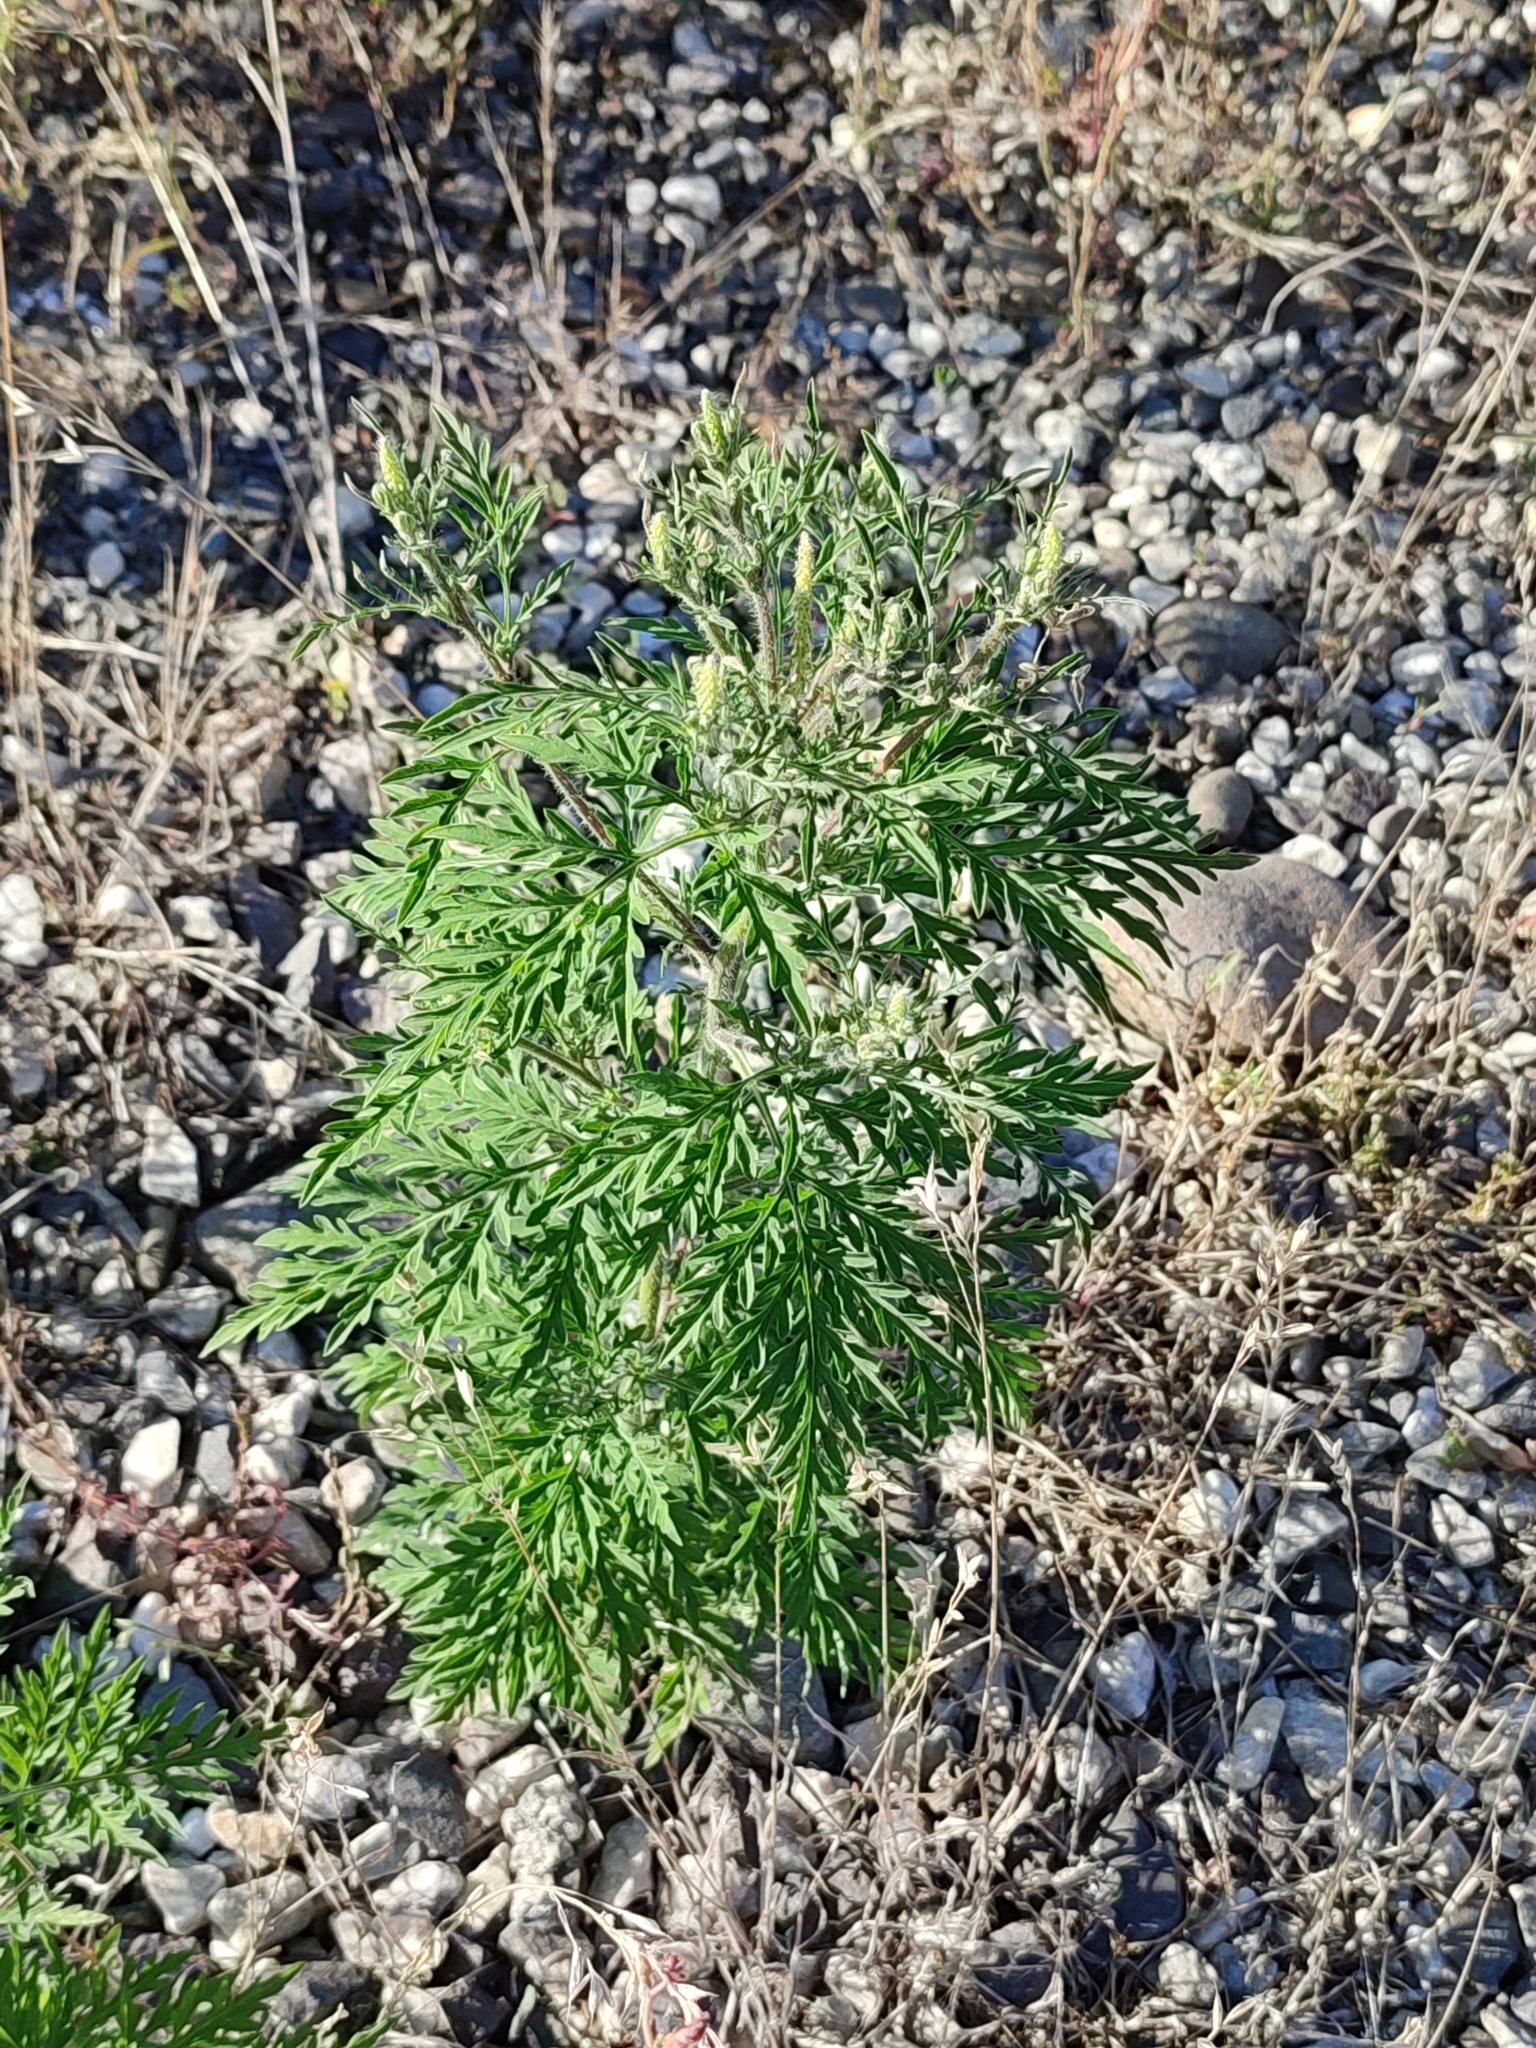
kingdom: Plantae
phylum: Tracheophyta
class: Magnoliopsida
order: Asterales
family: Asteraceae
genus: Ambrosia
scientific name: Ambrosia artemisiifolia
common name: Annual ragweed
